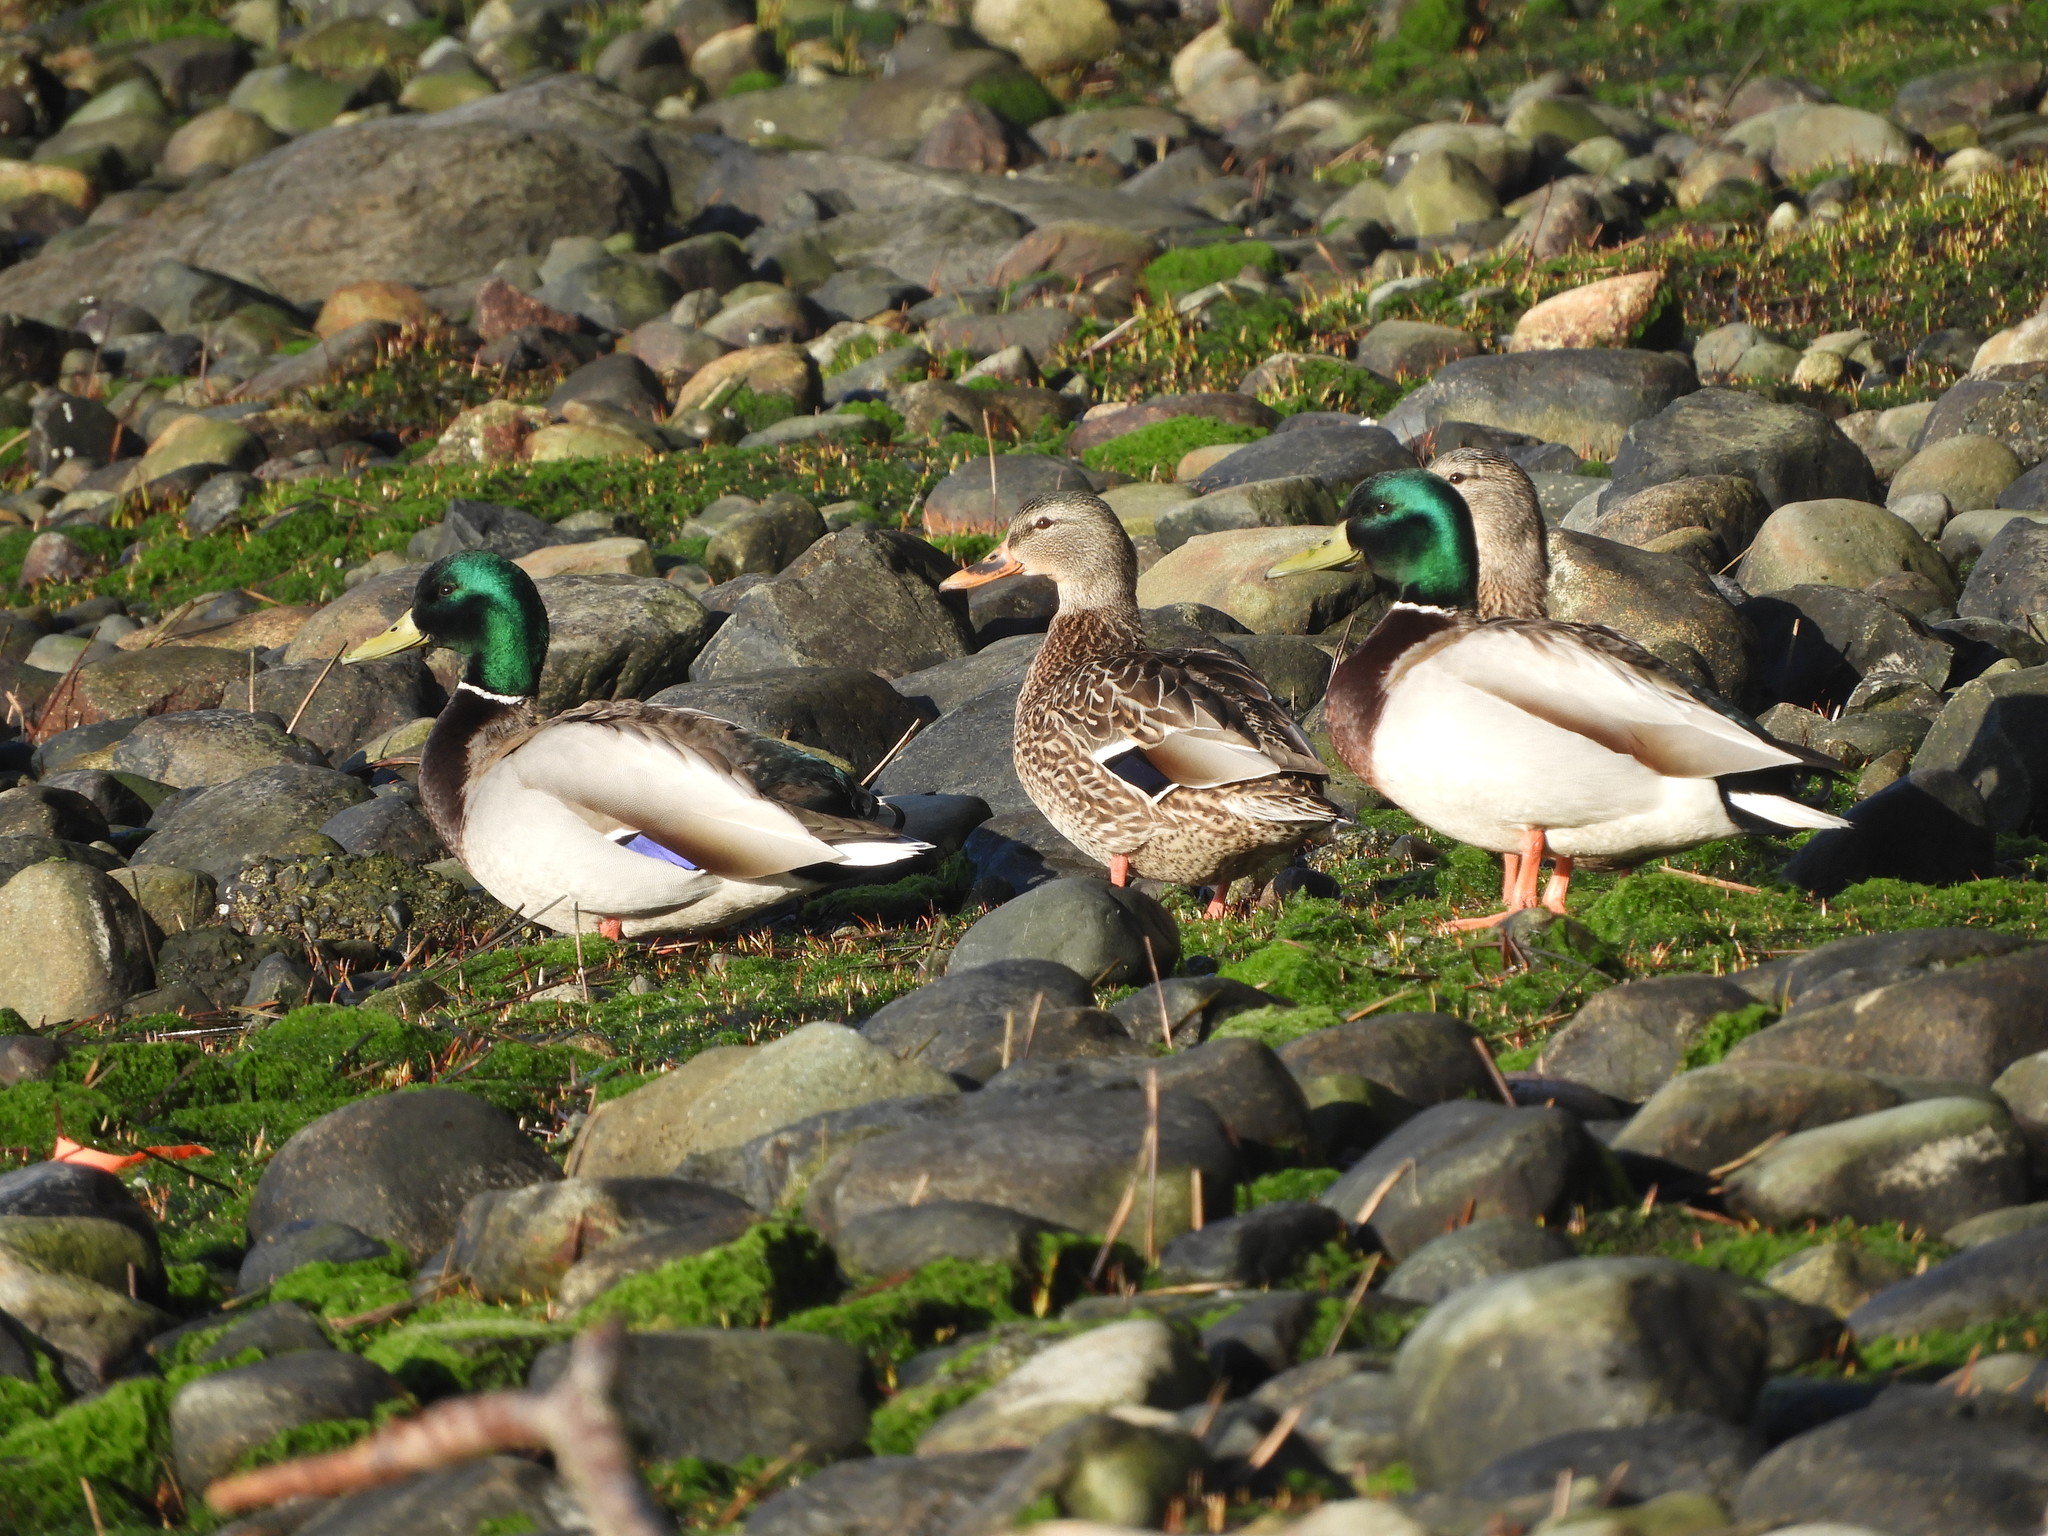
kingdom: Animalia
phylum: Chordata
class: Aves
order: Anseriformes
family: Anatidae
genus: Anas
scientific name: Anas platyrhynchos
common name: Mallard
